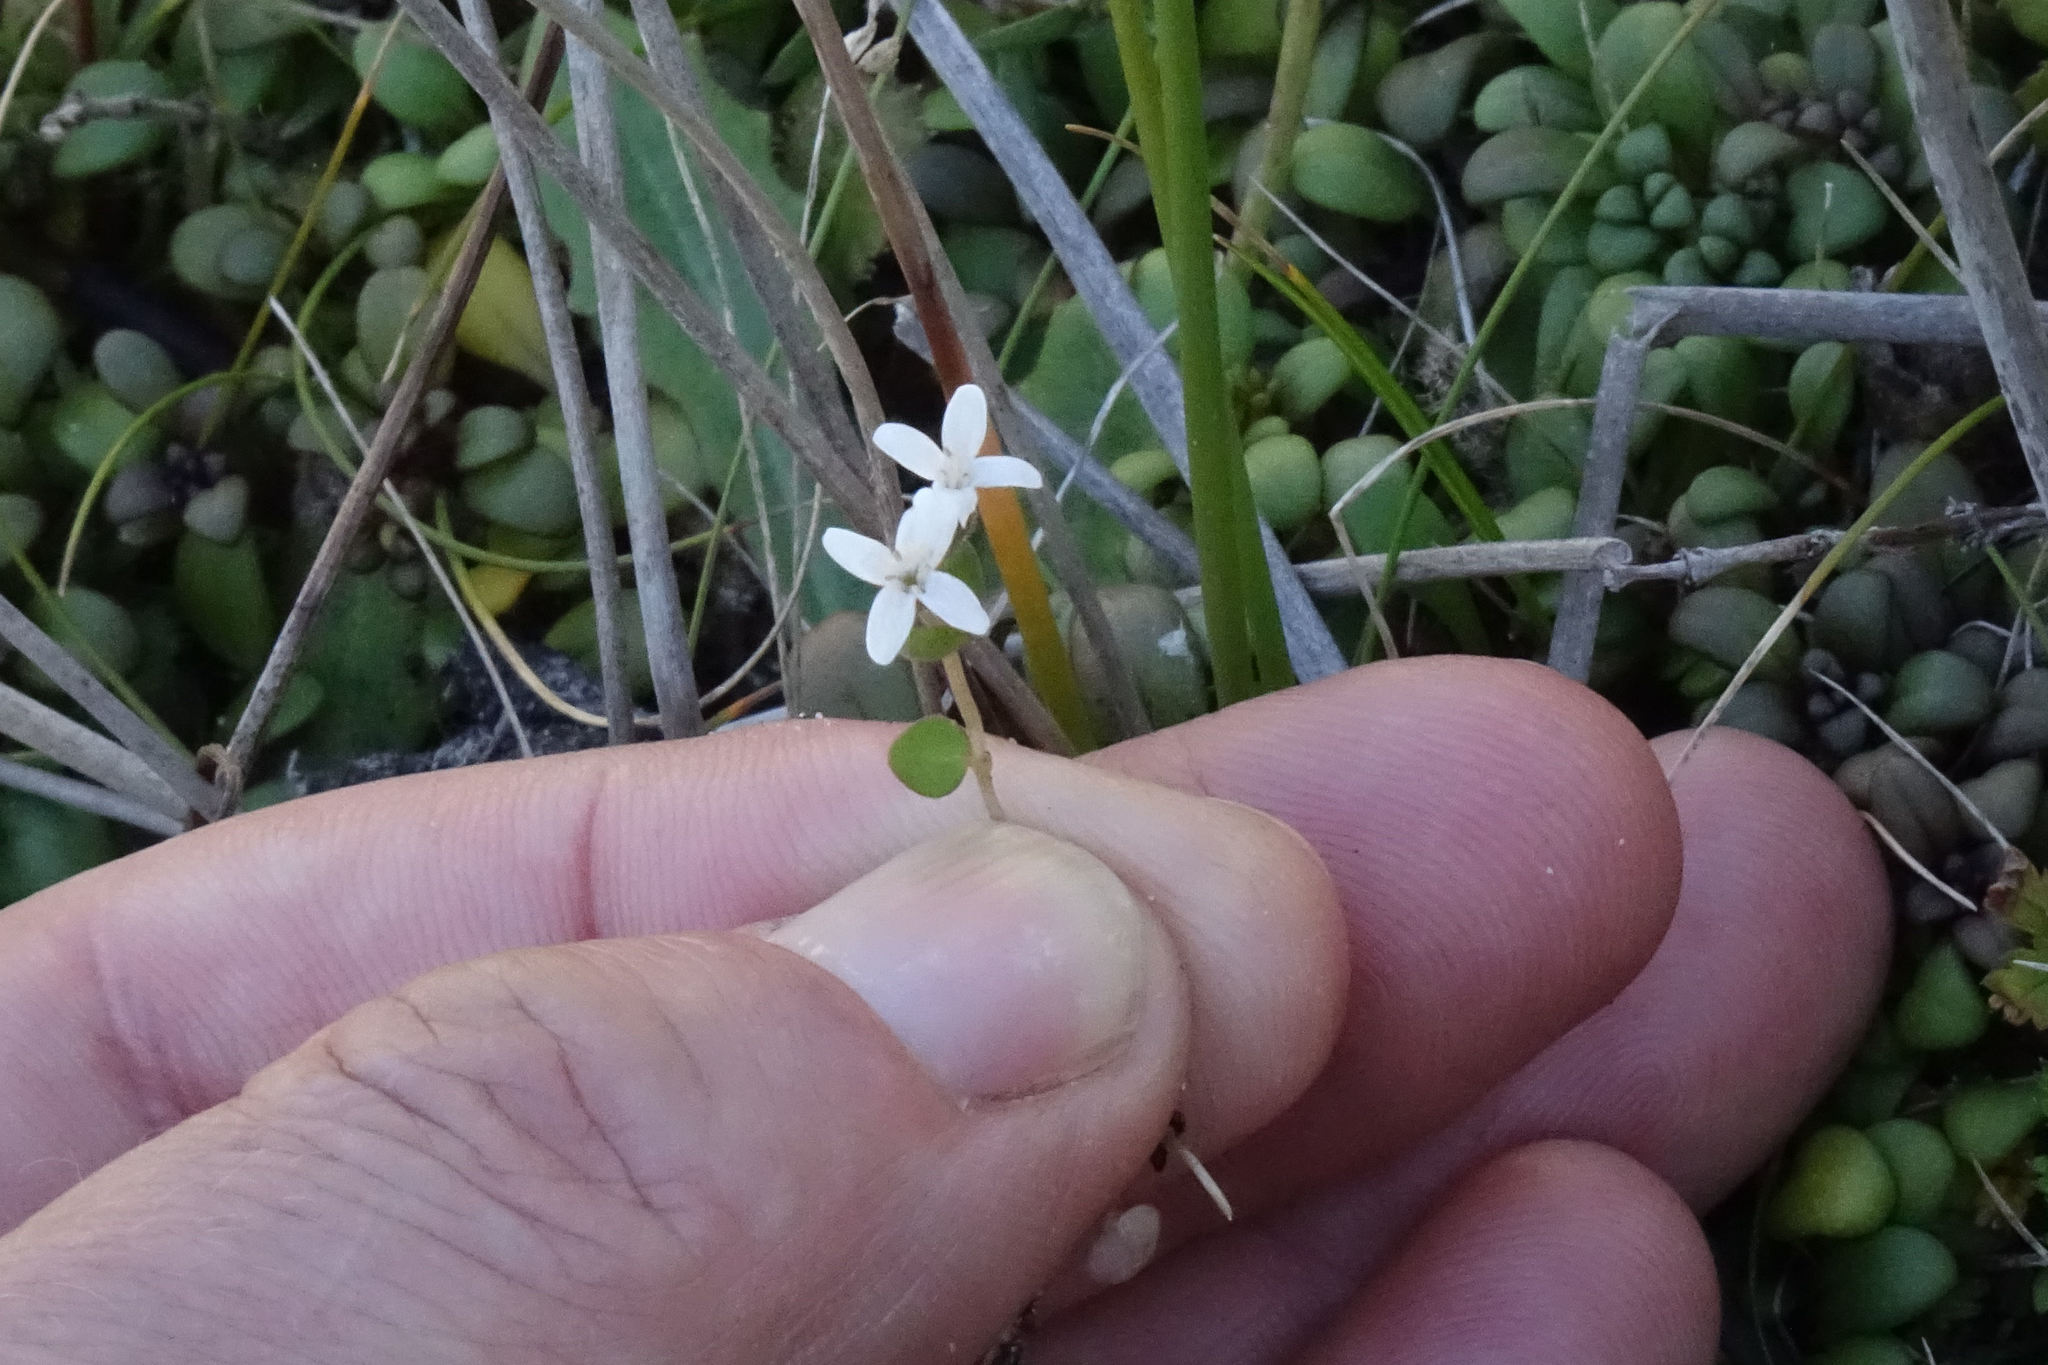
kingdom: Plantae
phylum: Tracheophyta
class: Magnoliopsida
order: Lamiales
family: Lamiaceae
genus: Mentha
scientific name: Mentha cunninghamii
